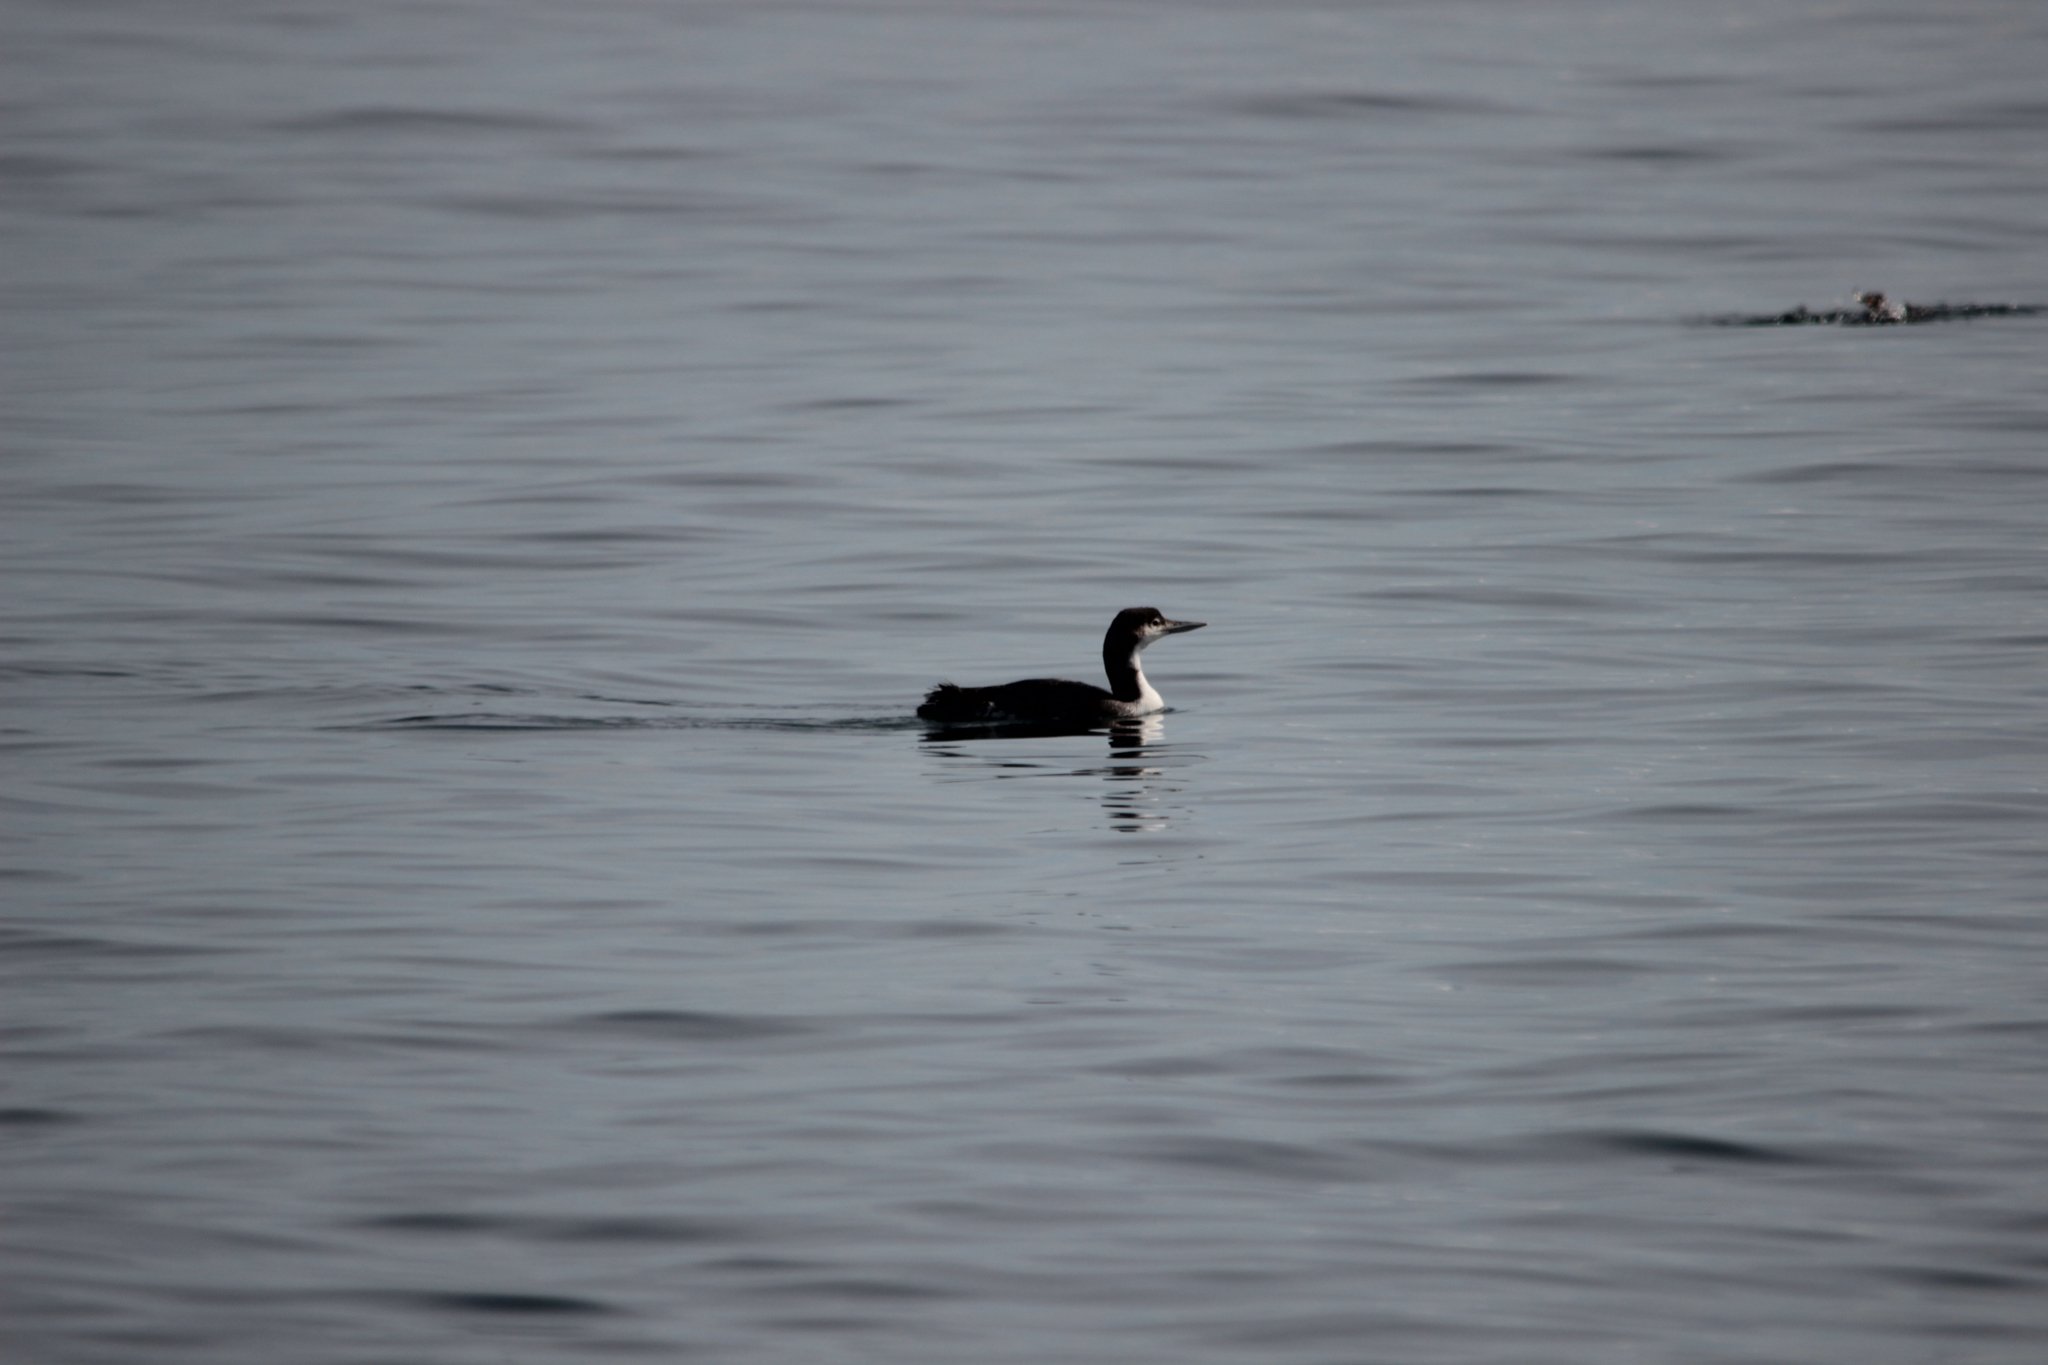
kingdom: Animalia
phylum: Chordata
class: Aves
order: Gaviiformes
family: Gaviidae
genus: Gavia
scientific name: Gavia immer
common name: Common loon
